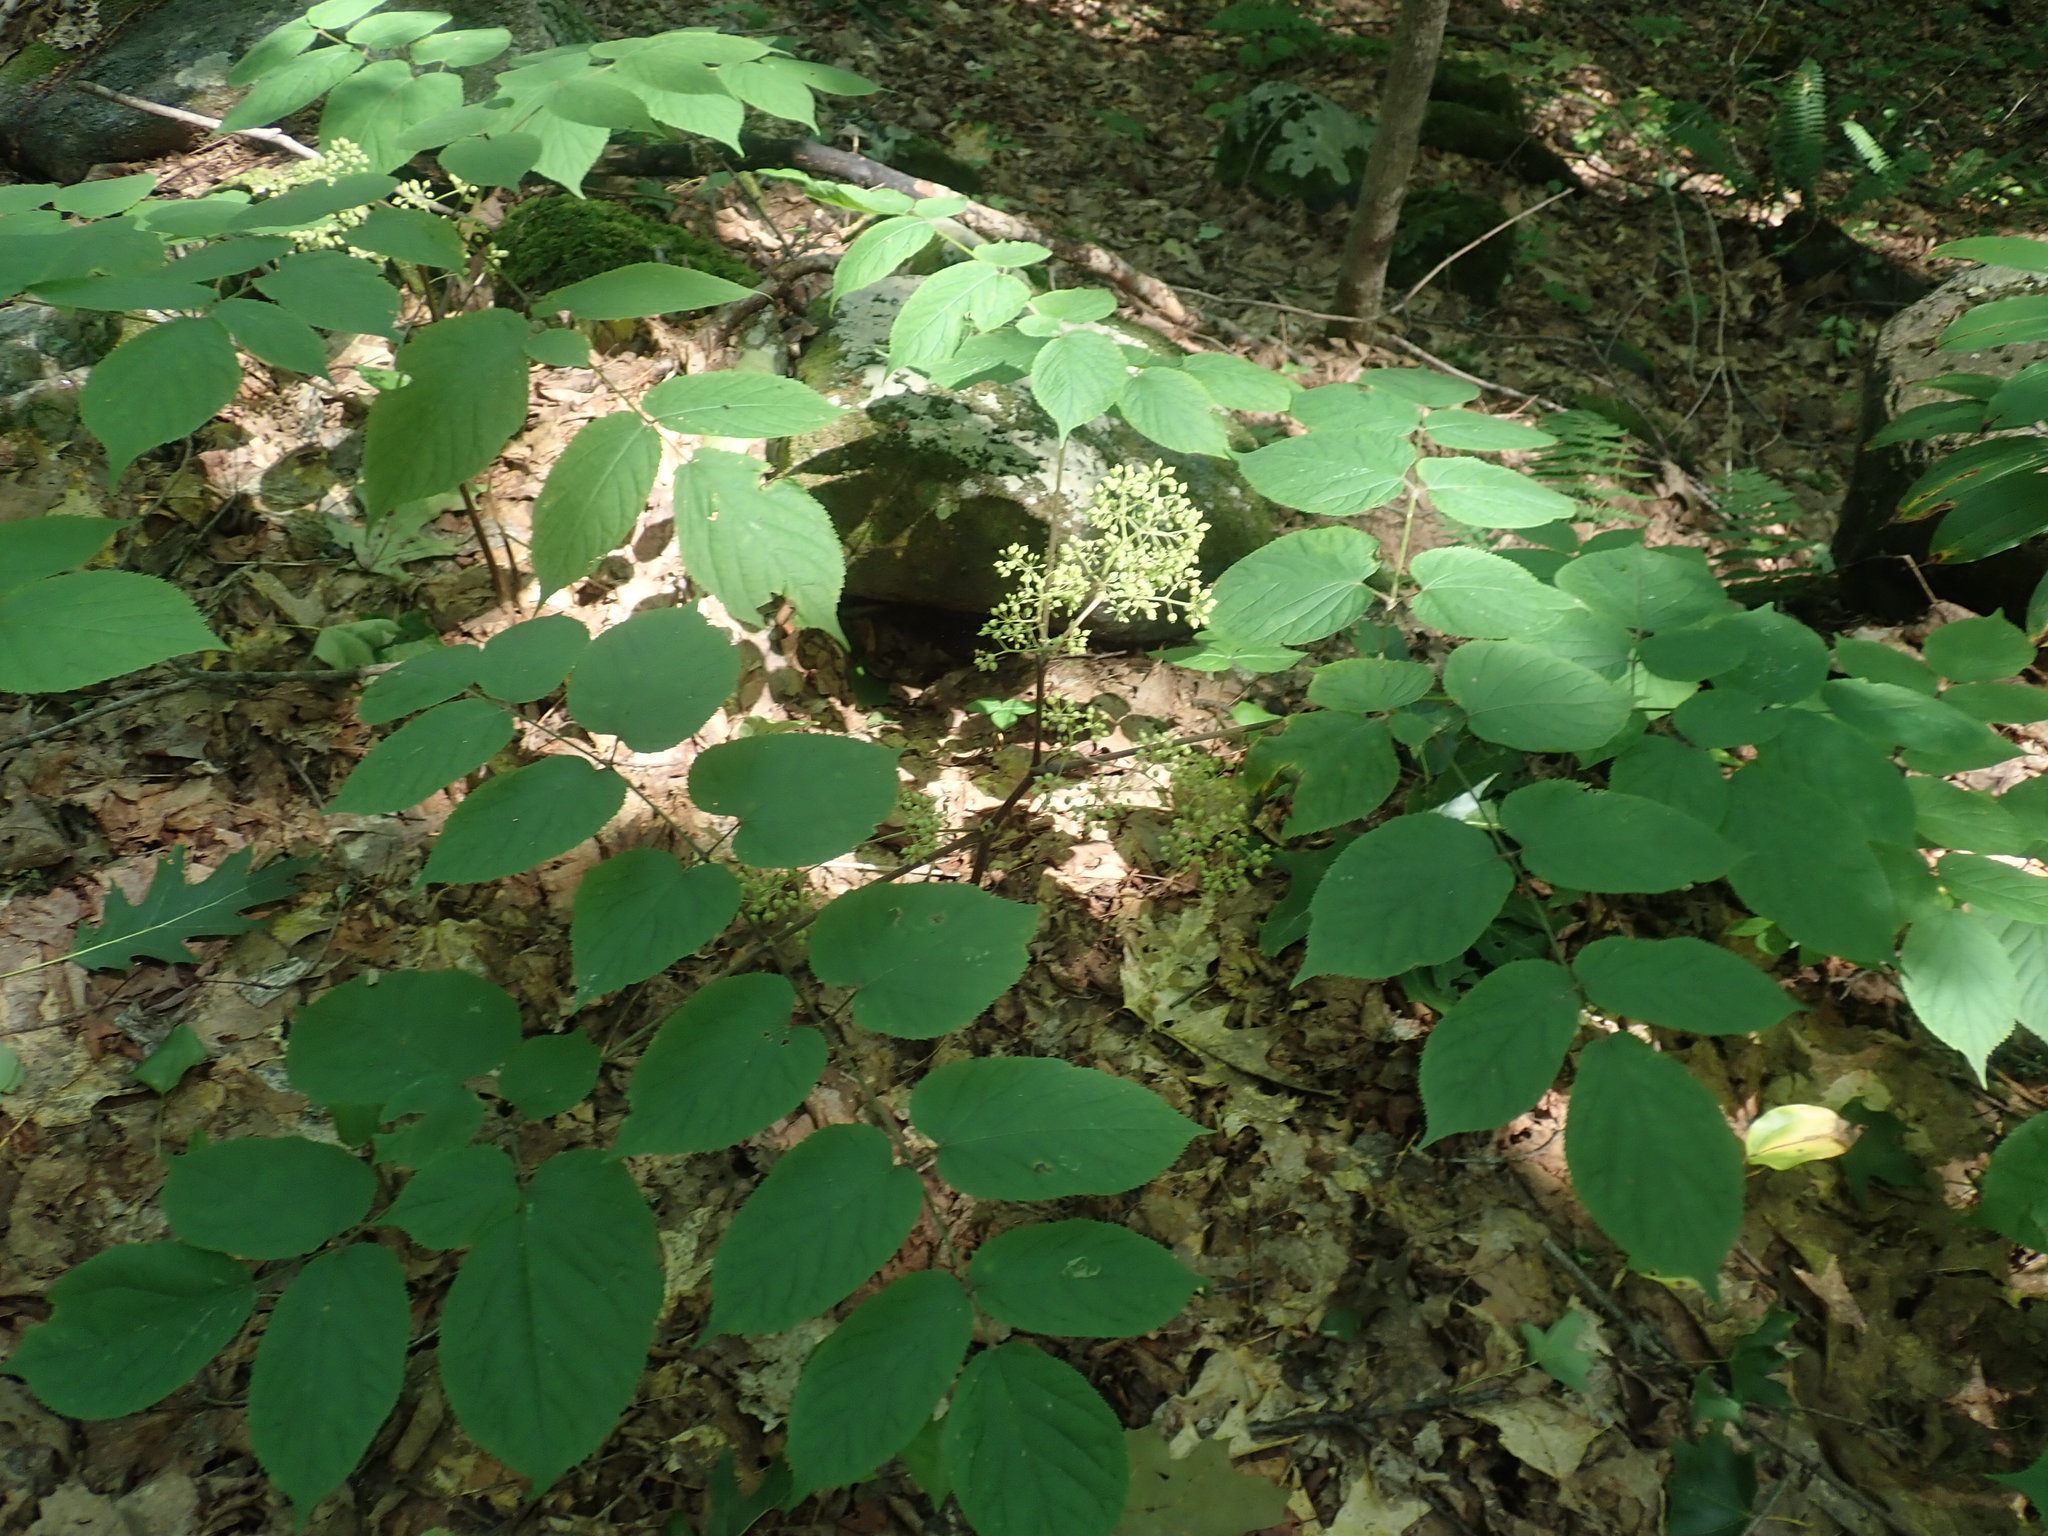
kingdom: Plantae
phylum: Tracheophyta
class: Magnoliopsida
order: Apiales
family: Araliaceae
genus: Aralia
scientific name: Aralia racemosa
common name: American-spikenard
